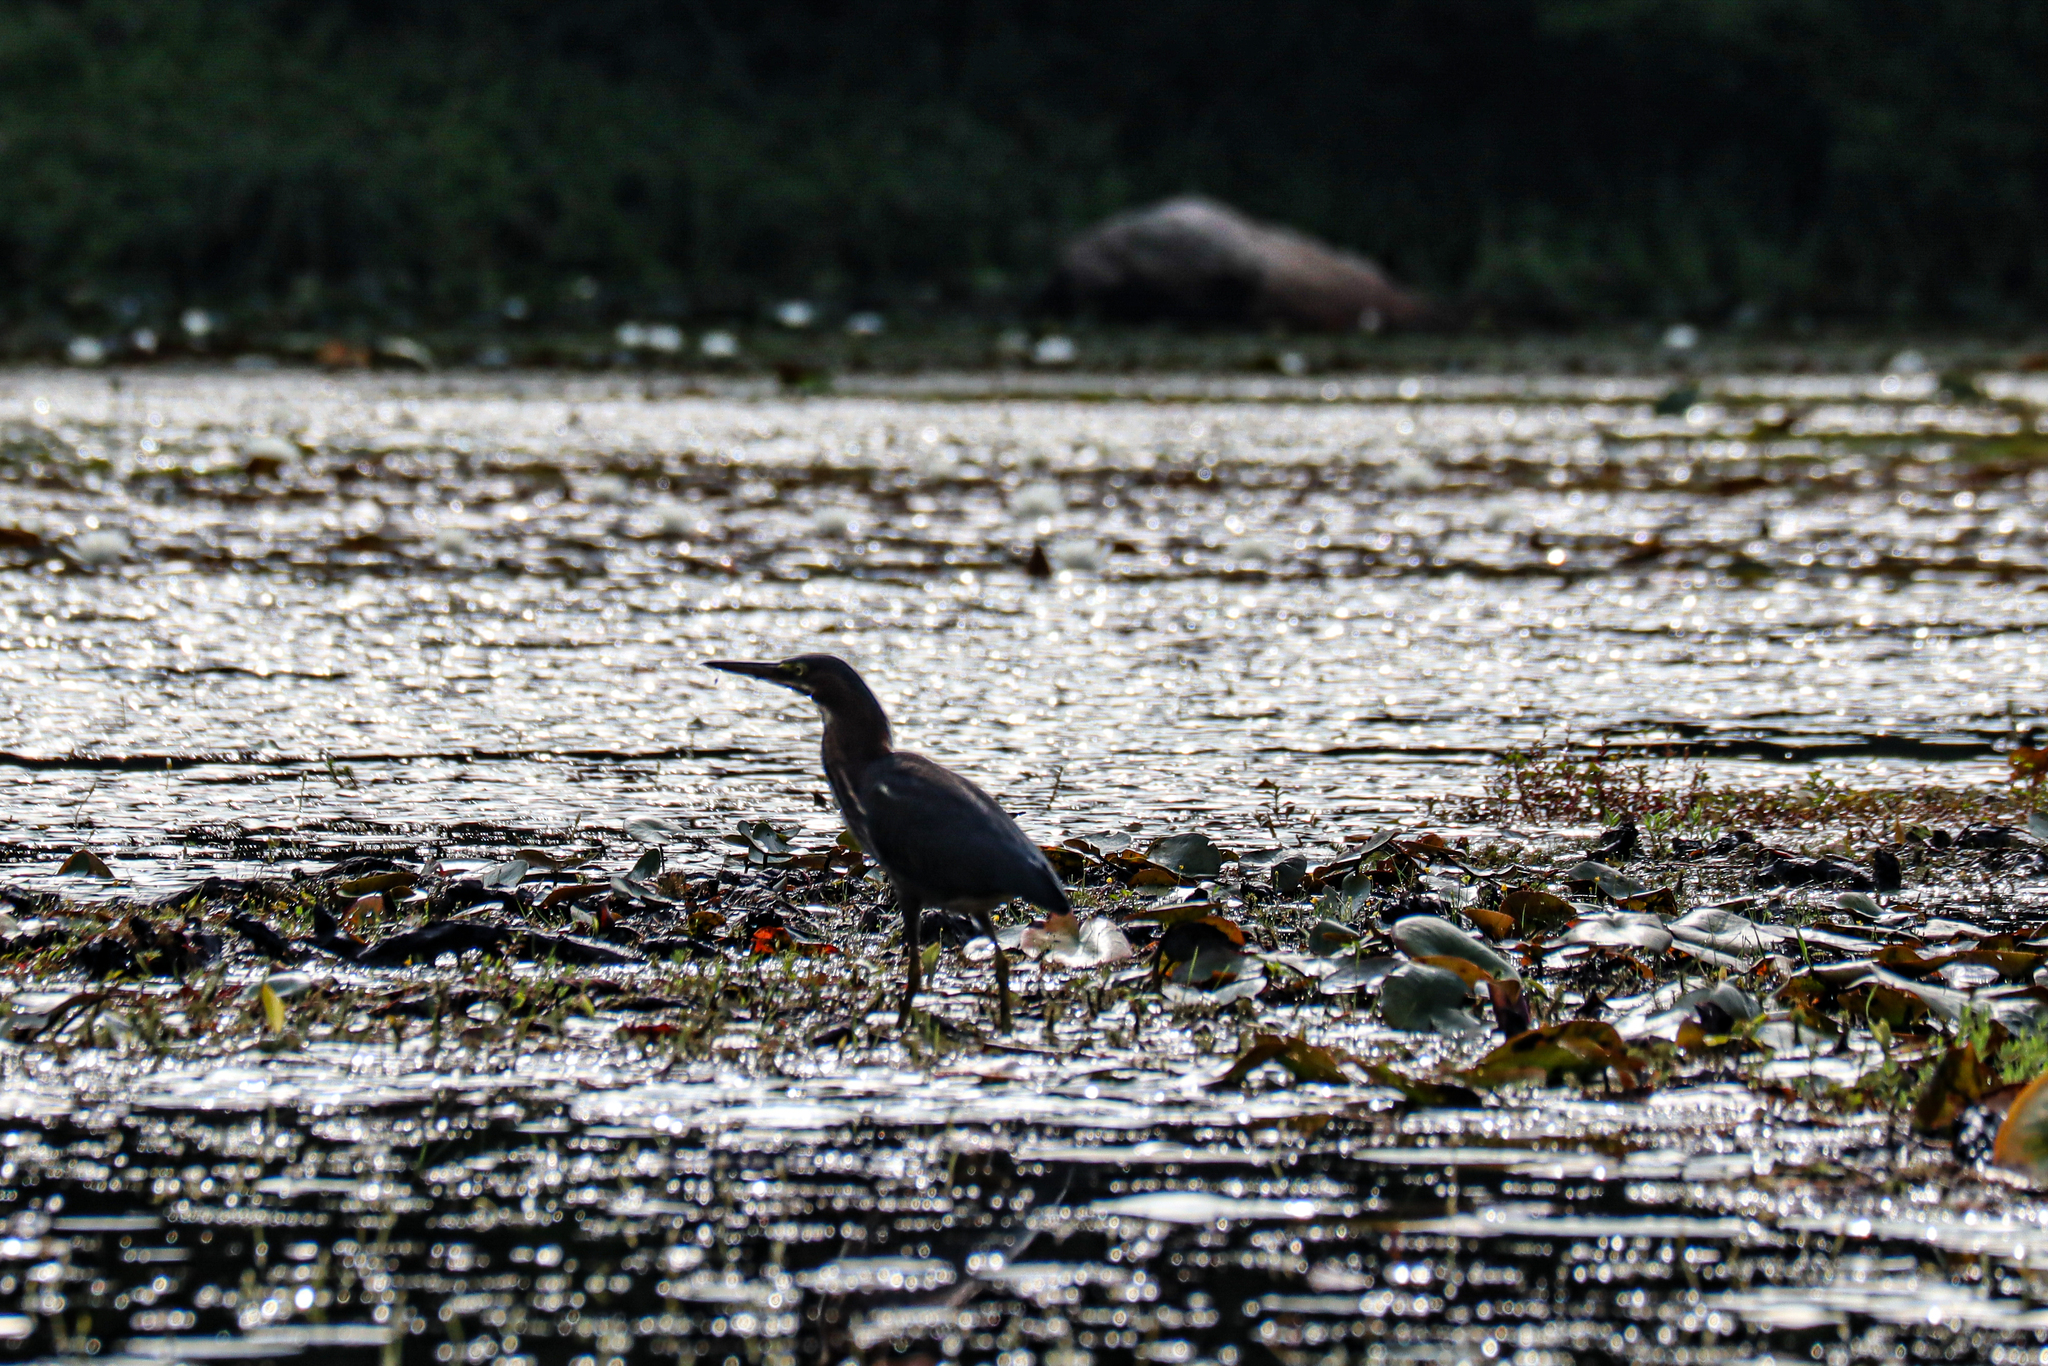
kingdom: Animalia
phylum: Chordata
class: Aves
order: Pelecaniformes
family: Ardeidae
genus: Butorides
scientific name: Butorides virescens
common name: Green heron
